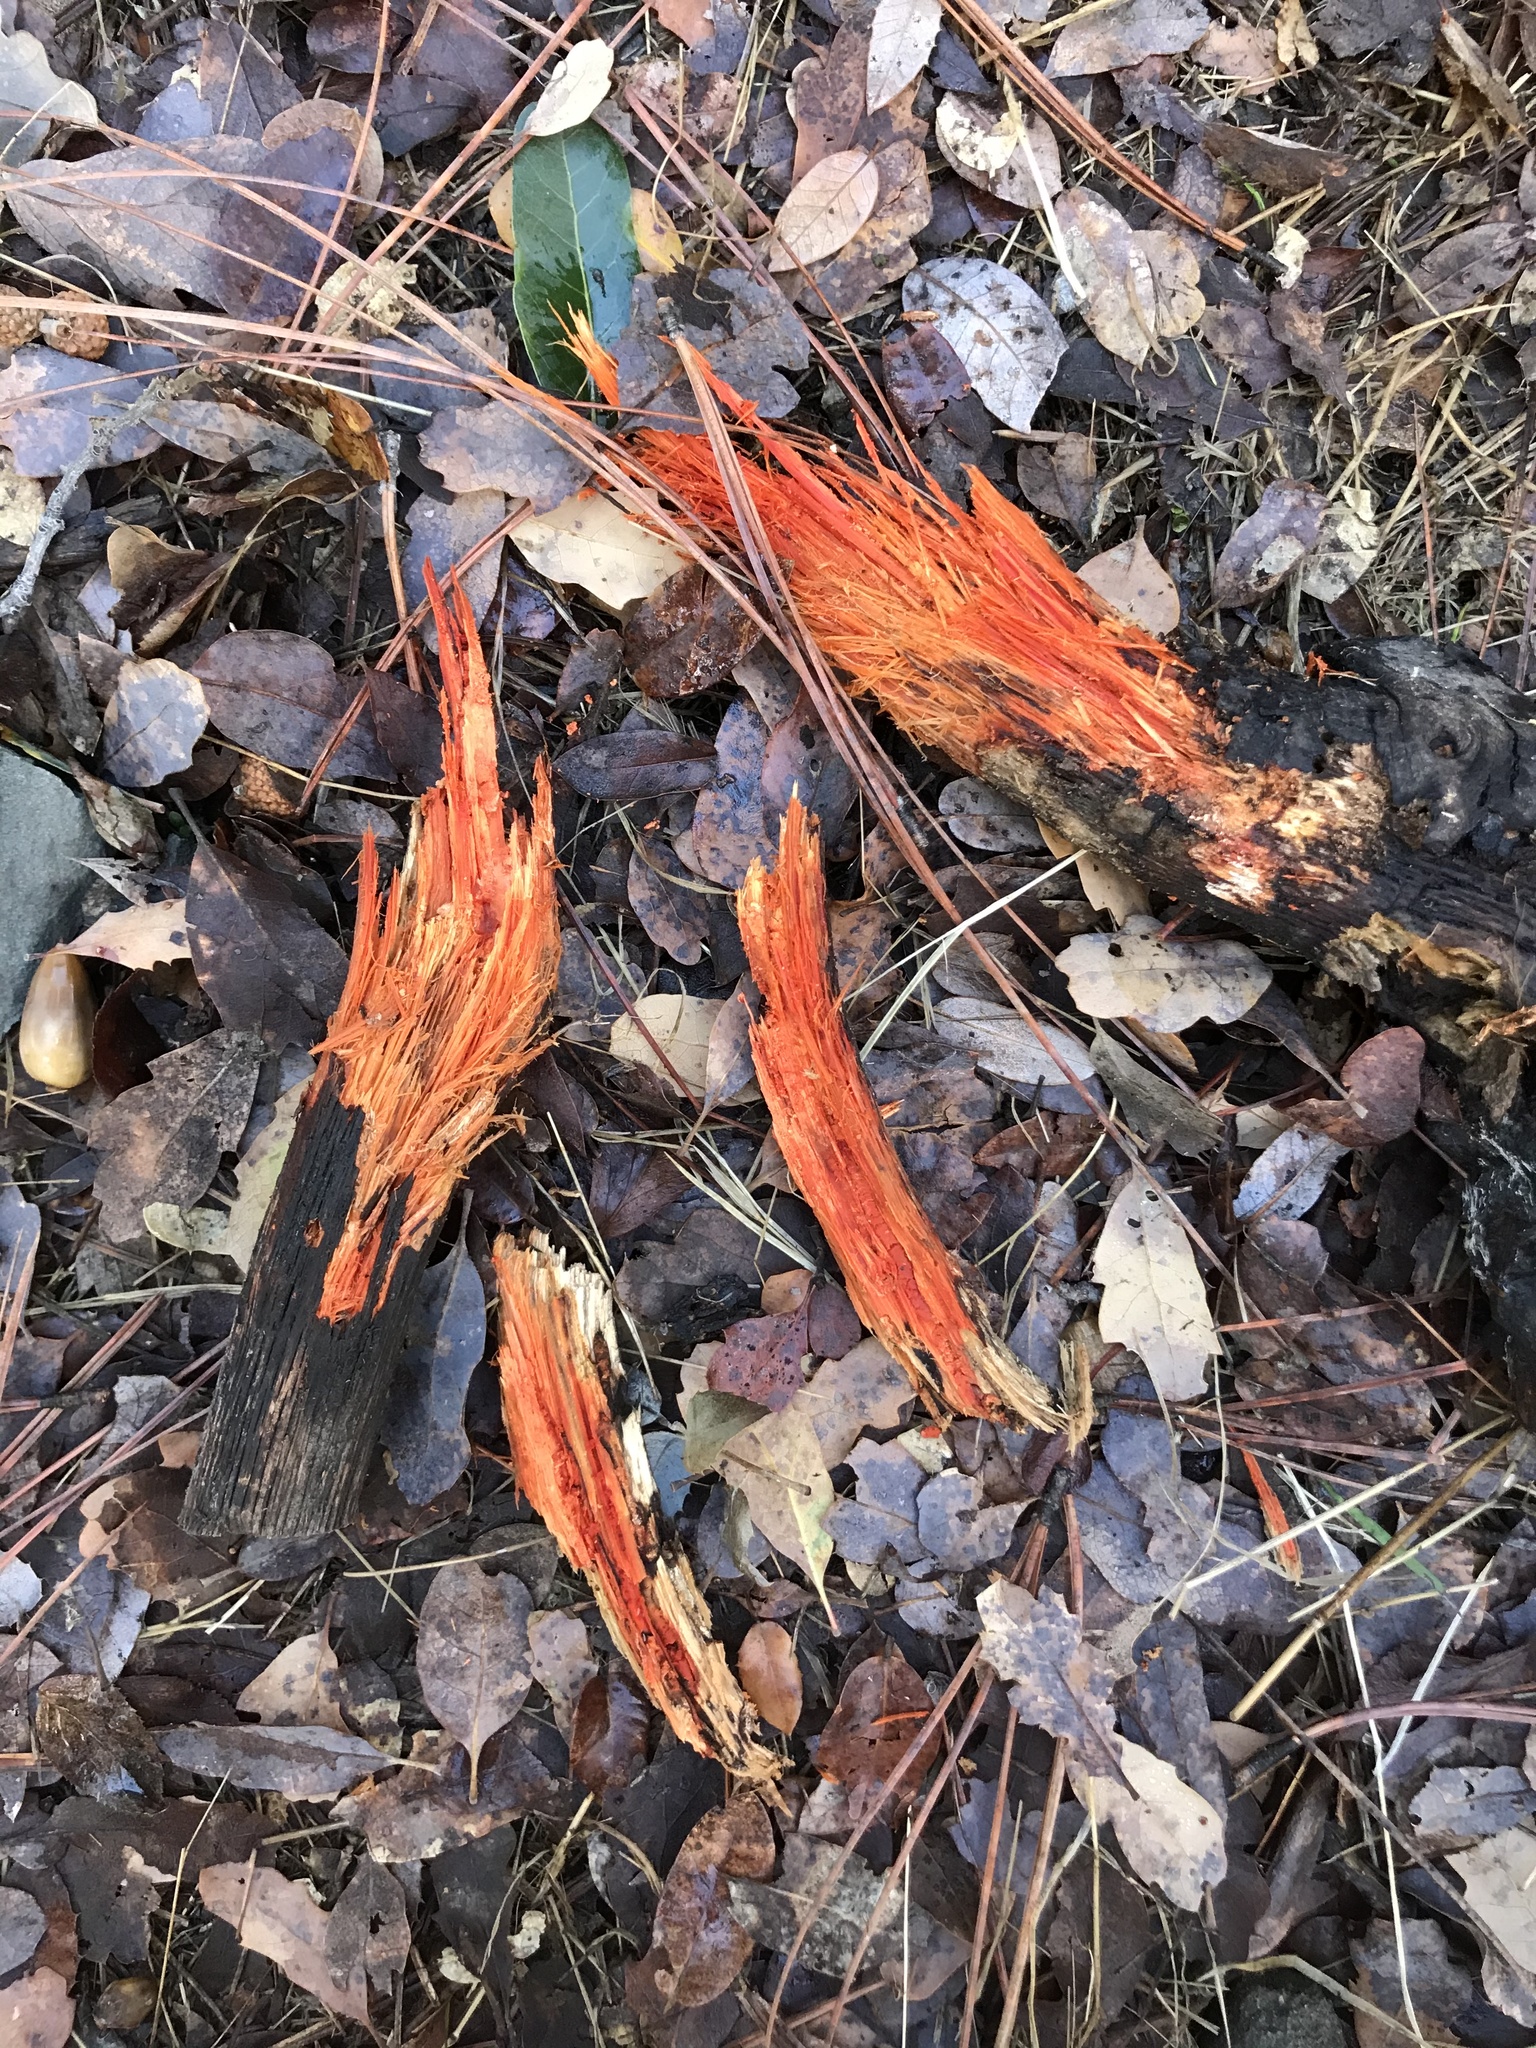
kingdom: Fungi
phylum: Basidiomycota
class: Agaricomycetes
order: Polyporales
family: Phanerochaetaceae
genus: Atheliachaete
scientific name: Atheliachaete sanguinea
